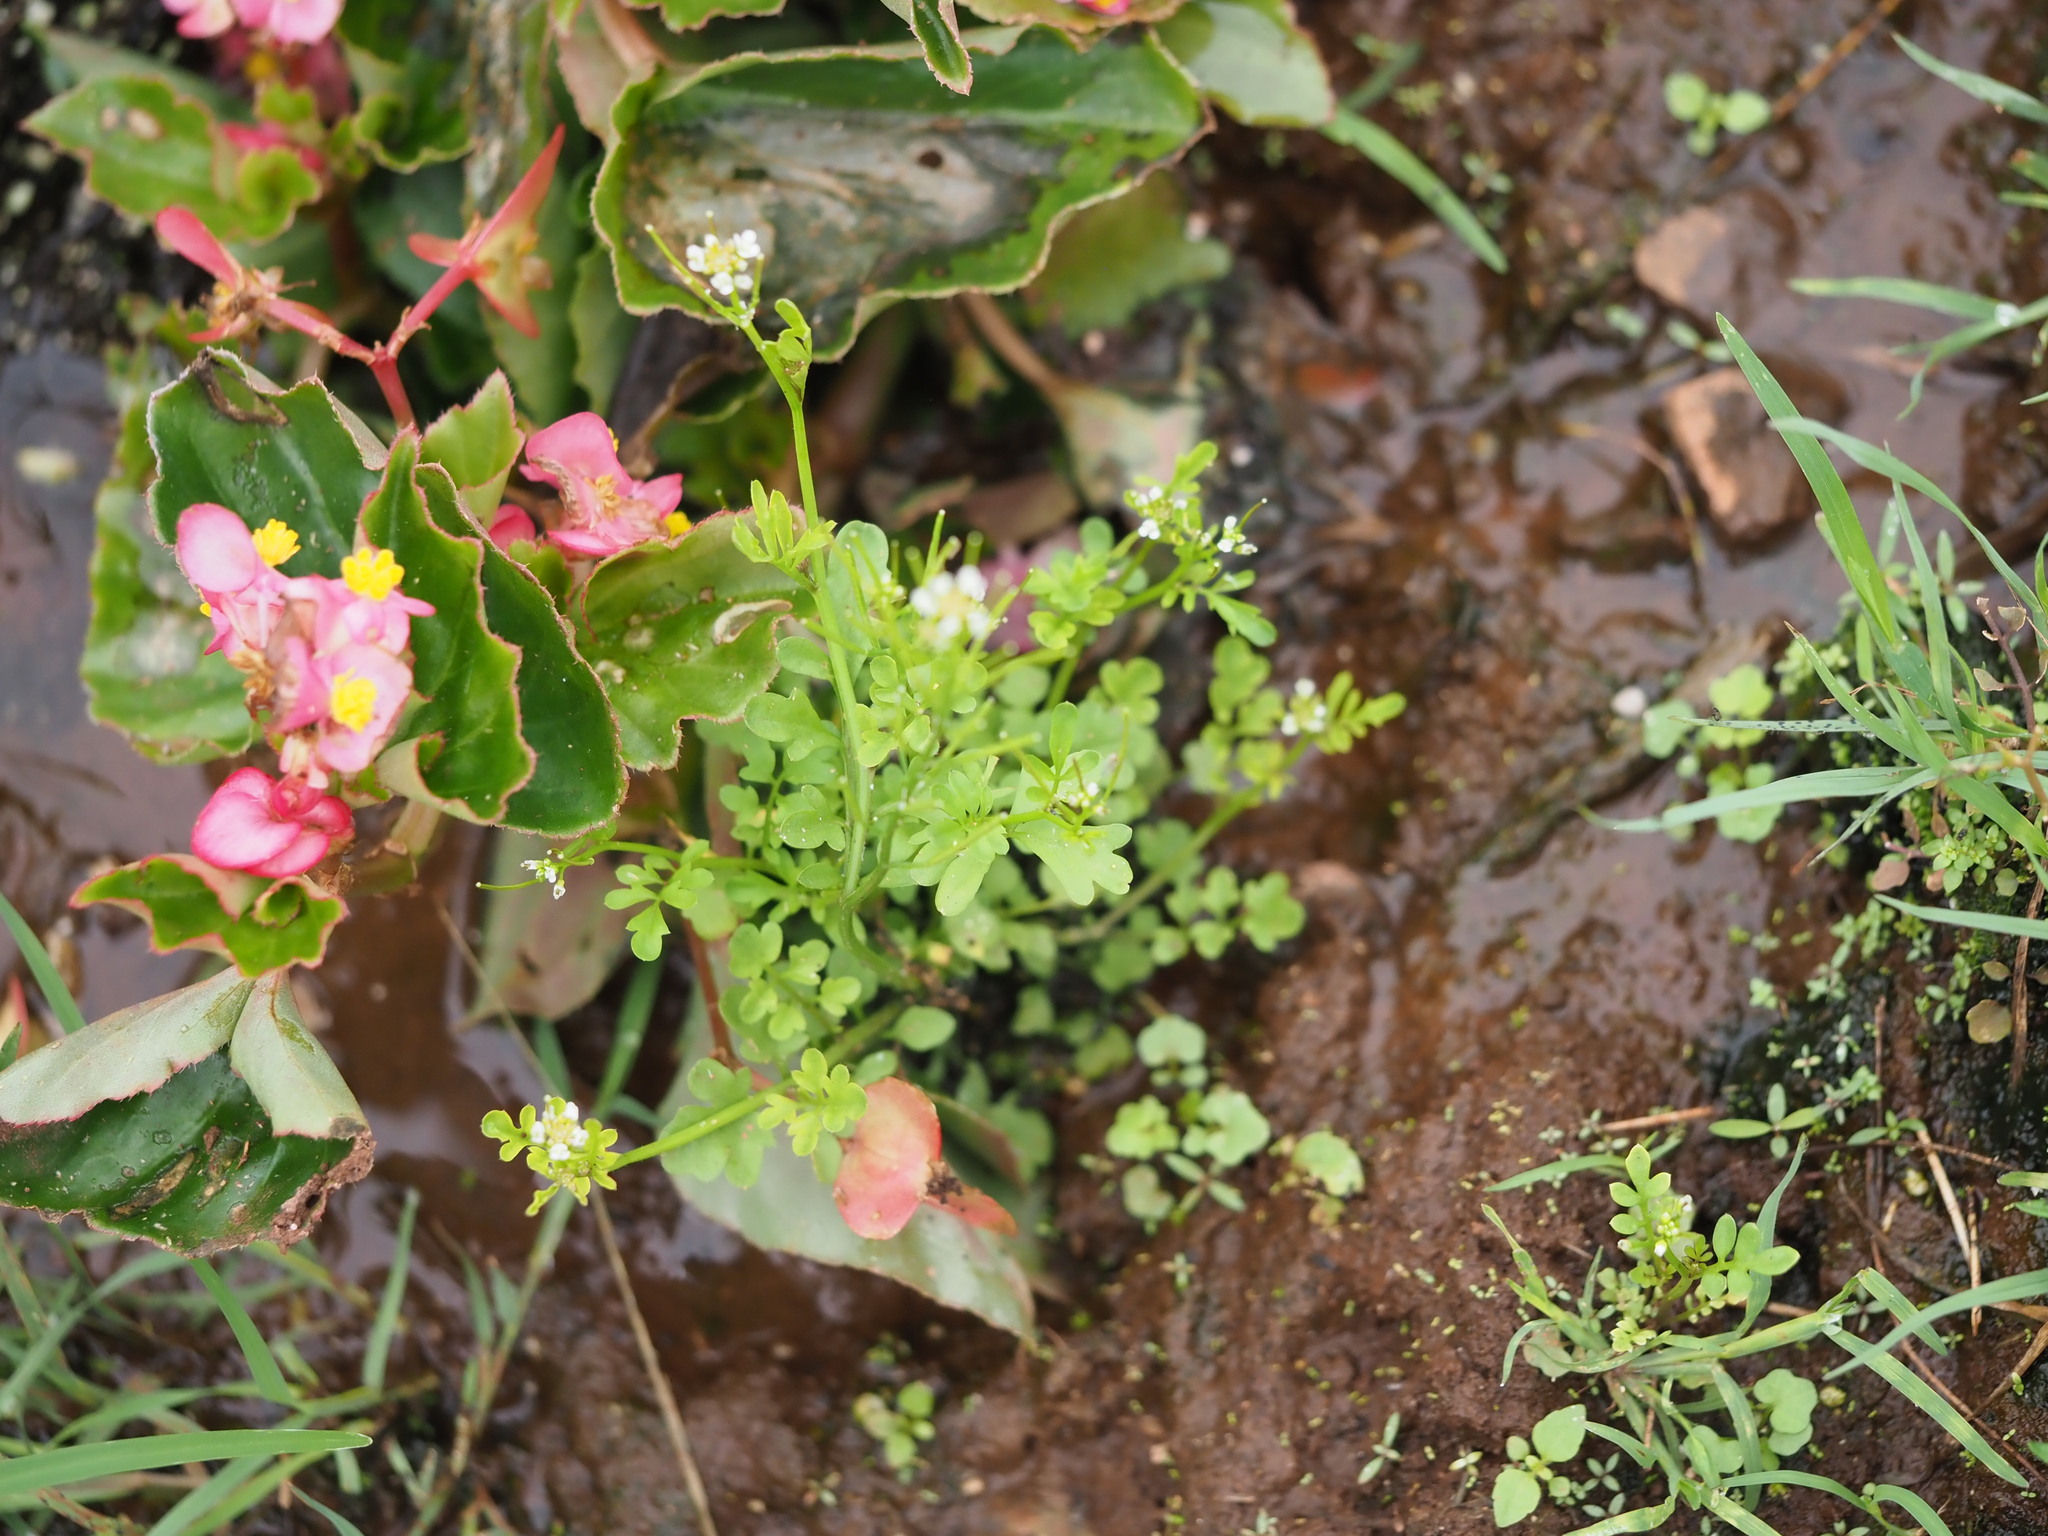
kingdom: Plantae
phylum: Tracheophyta
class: Magnoliopsida
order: Brassicales
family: Brassicaceae
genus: Cardamine
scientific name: Cardamine occulta
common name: Asian wavy bittercress
